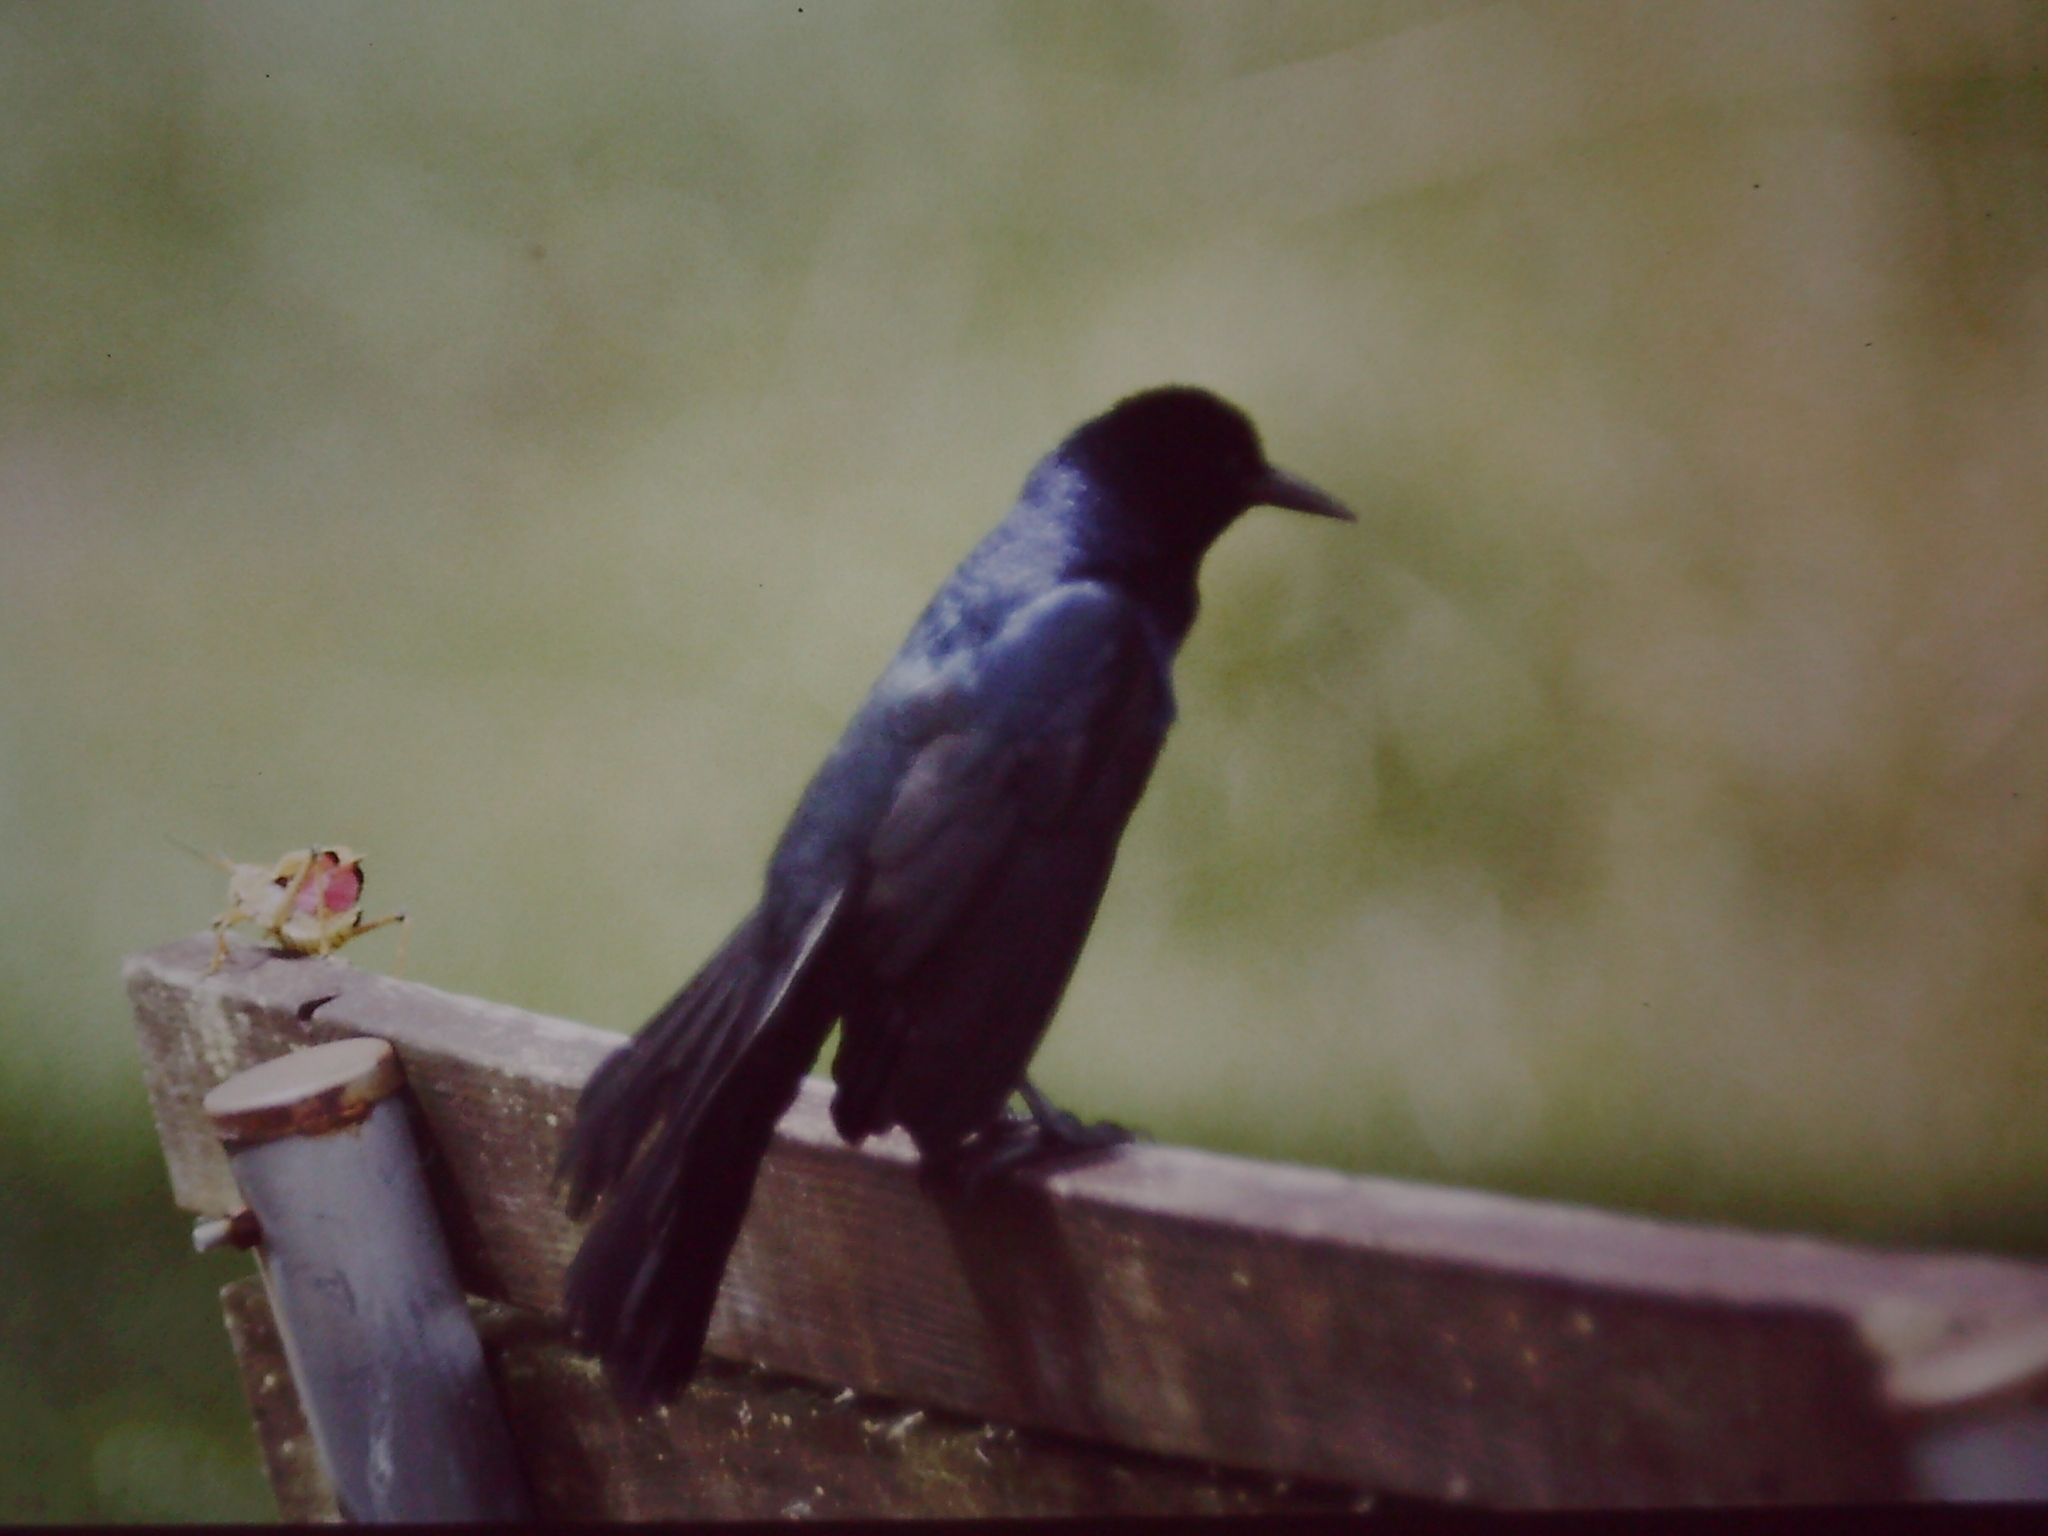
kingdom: Animalia
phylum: Chordata
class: Aves
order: Passeriformes
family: Icteridae
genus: Quiscalus
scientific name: Quiscalus major
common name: Boat-tailed grackle
